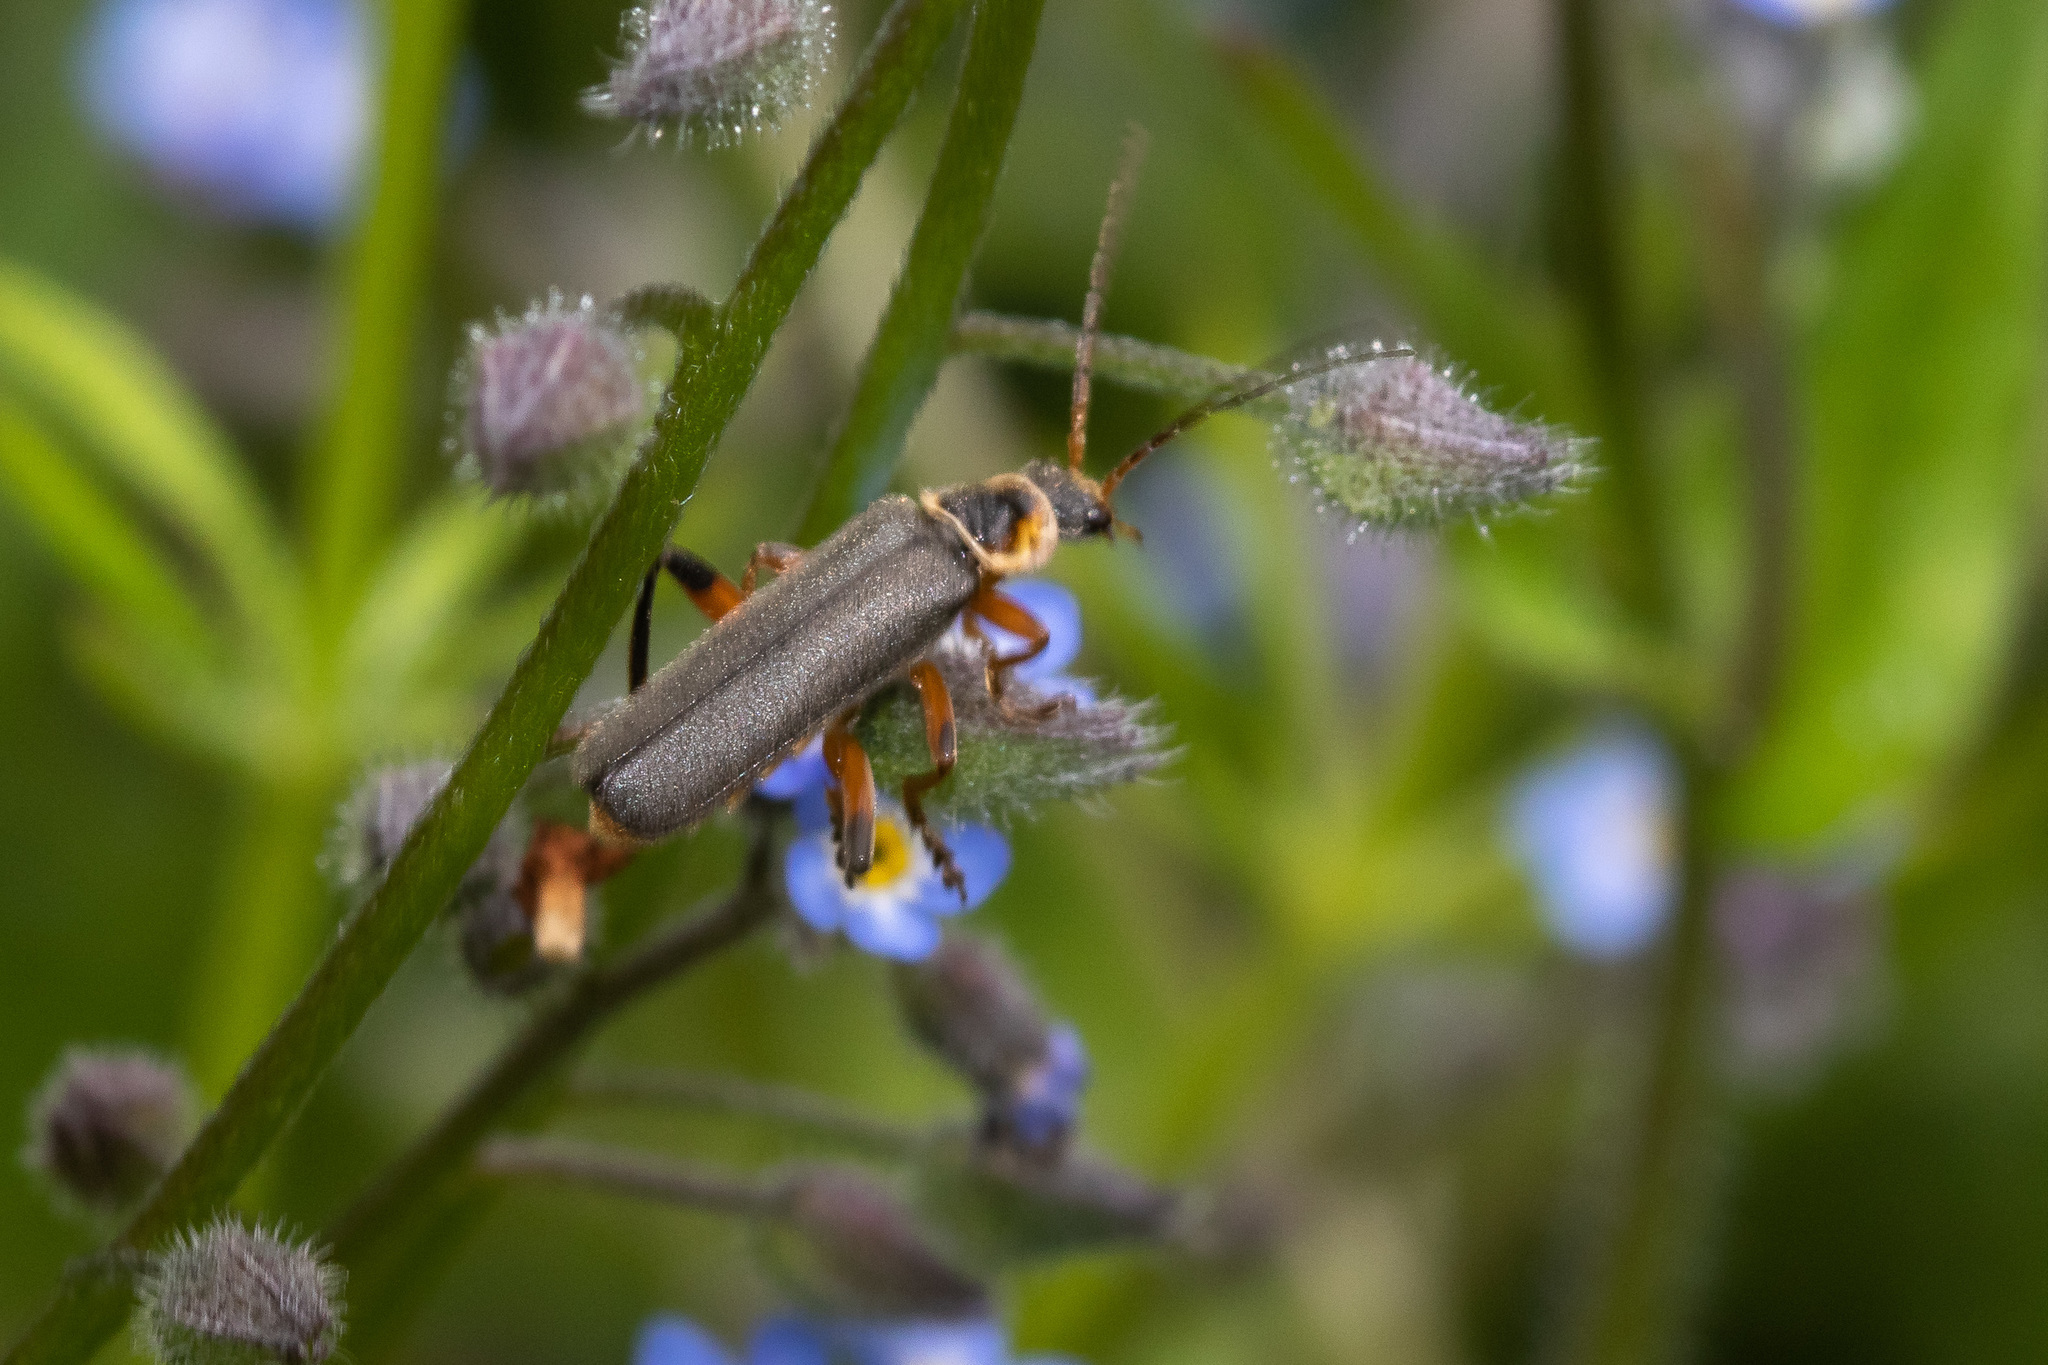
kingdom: Animalia
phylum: Arthropoda
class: Insecta
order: Coleoptera
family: Cantharidae
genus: Cantharis
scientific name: Cantharis nigricans
